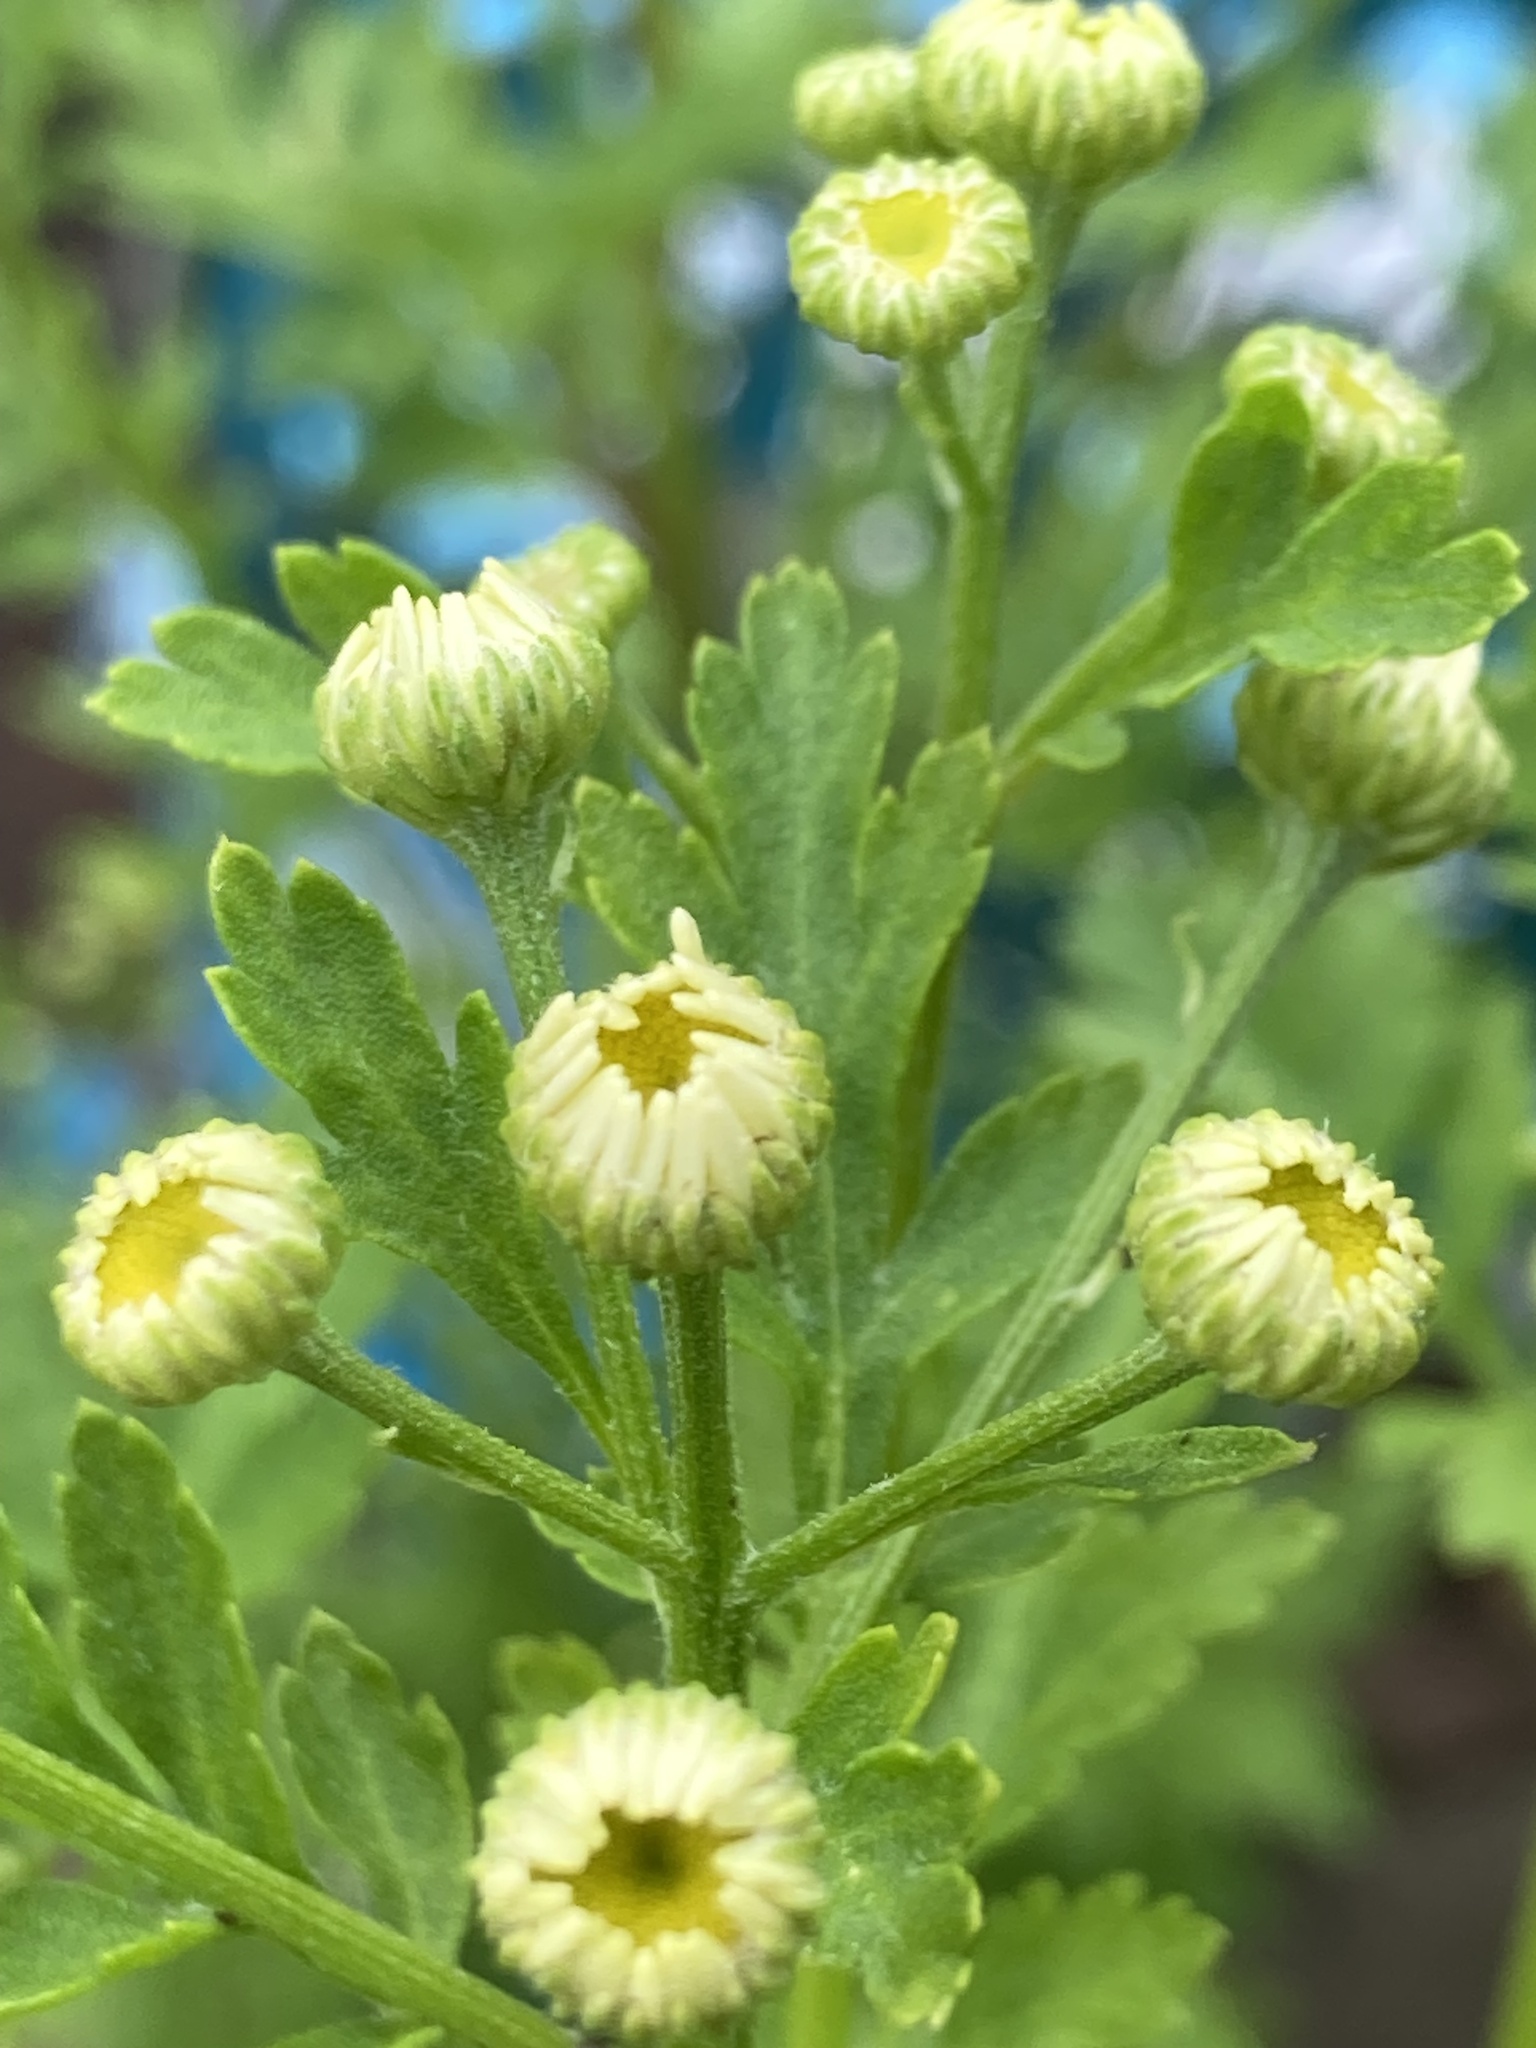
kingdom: Plantae
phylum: Tracheophyta
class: Magnoliopsida
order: Asterales
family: Asteraceae
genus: Tanacetum
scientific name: Tanacetum parthenium
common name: Feverfew
